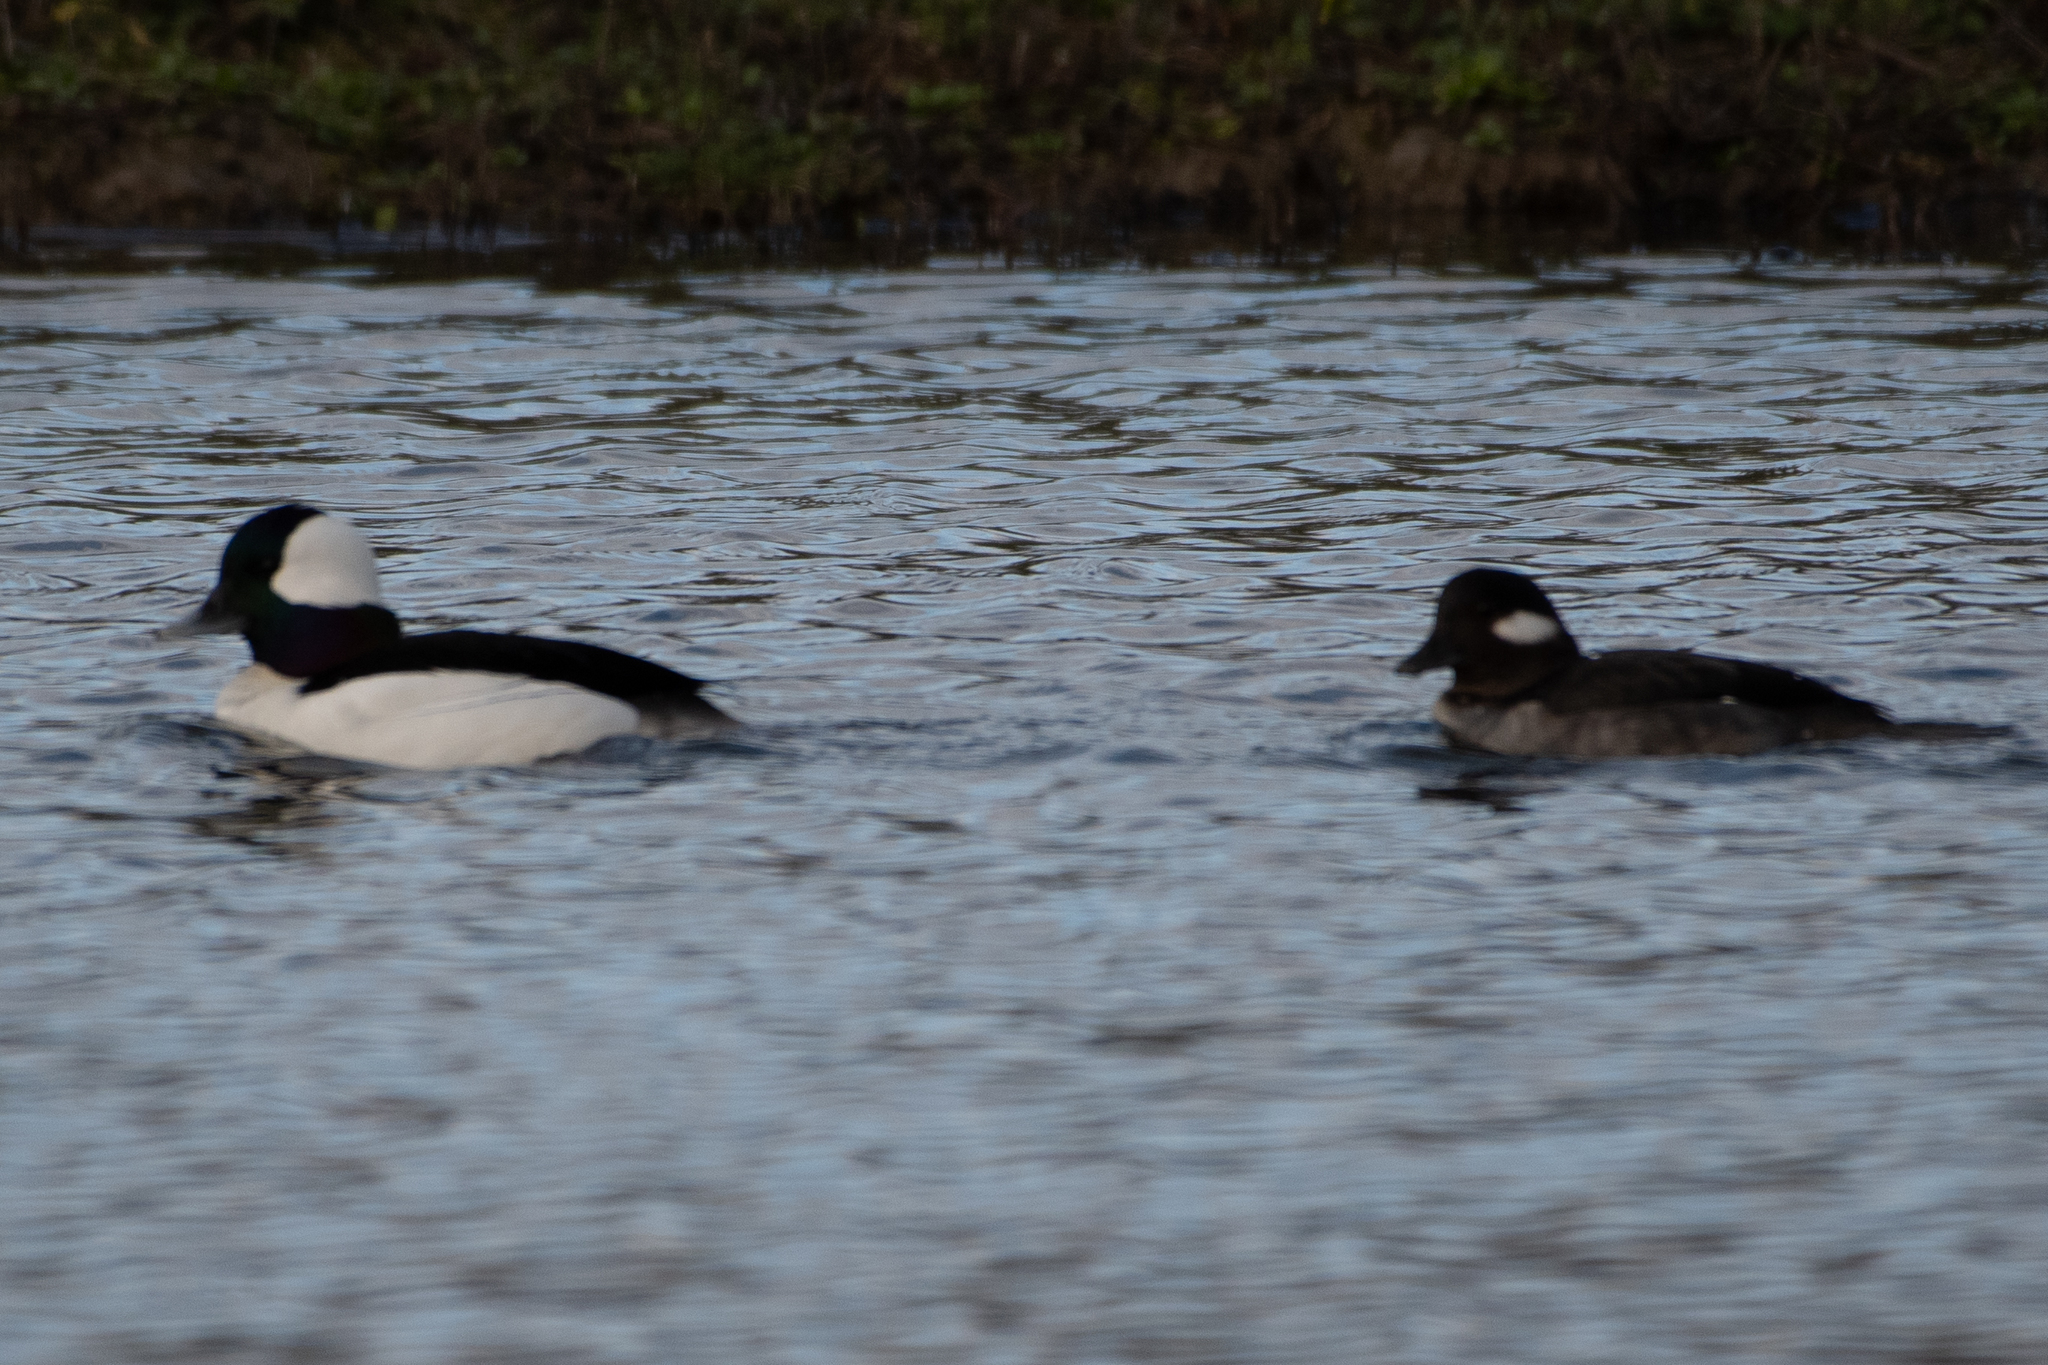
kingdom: Animalia
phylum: Chordata
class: Aves
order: Anseriformes
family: Anatidae
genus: Bucephala
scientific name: Bucephala albeola
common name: Bufflehead
